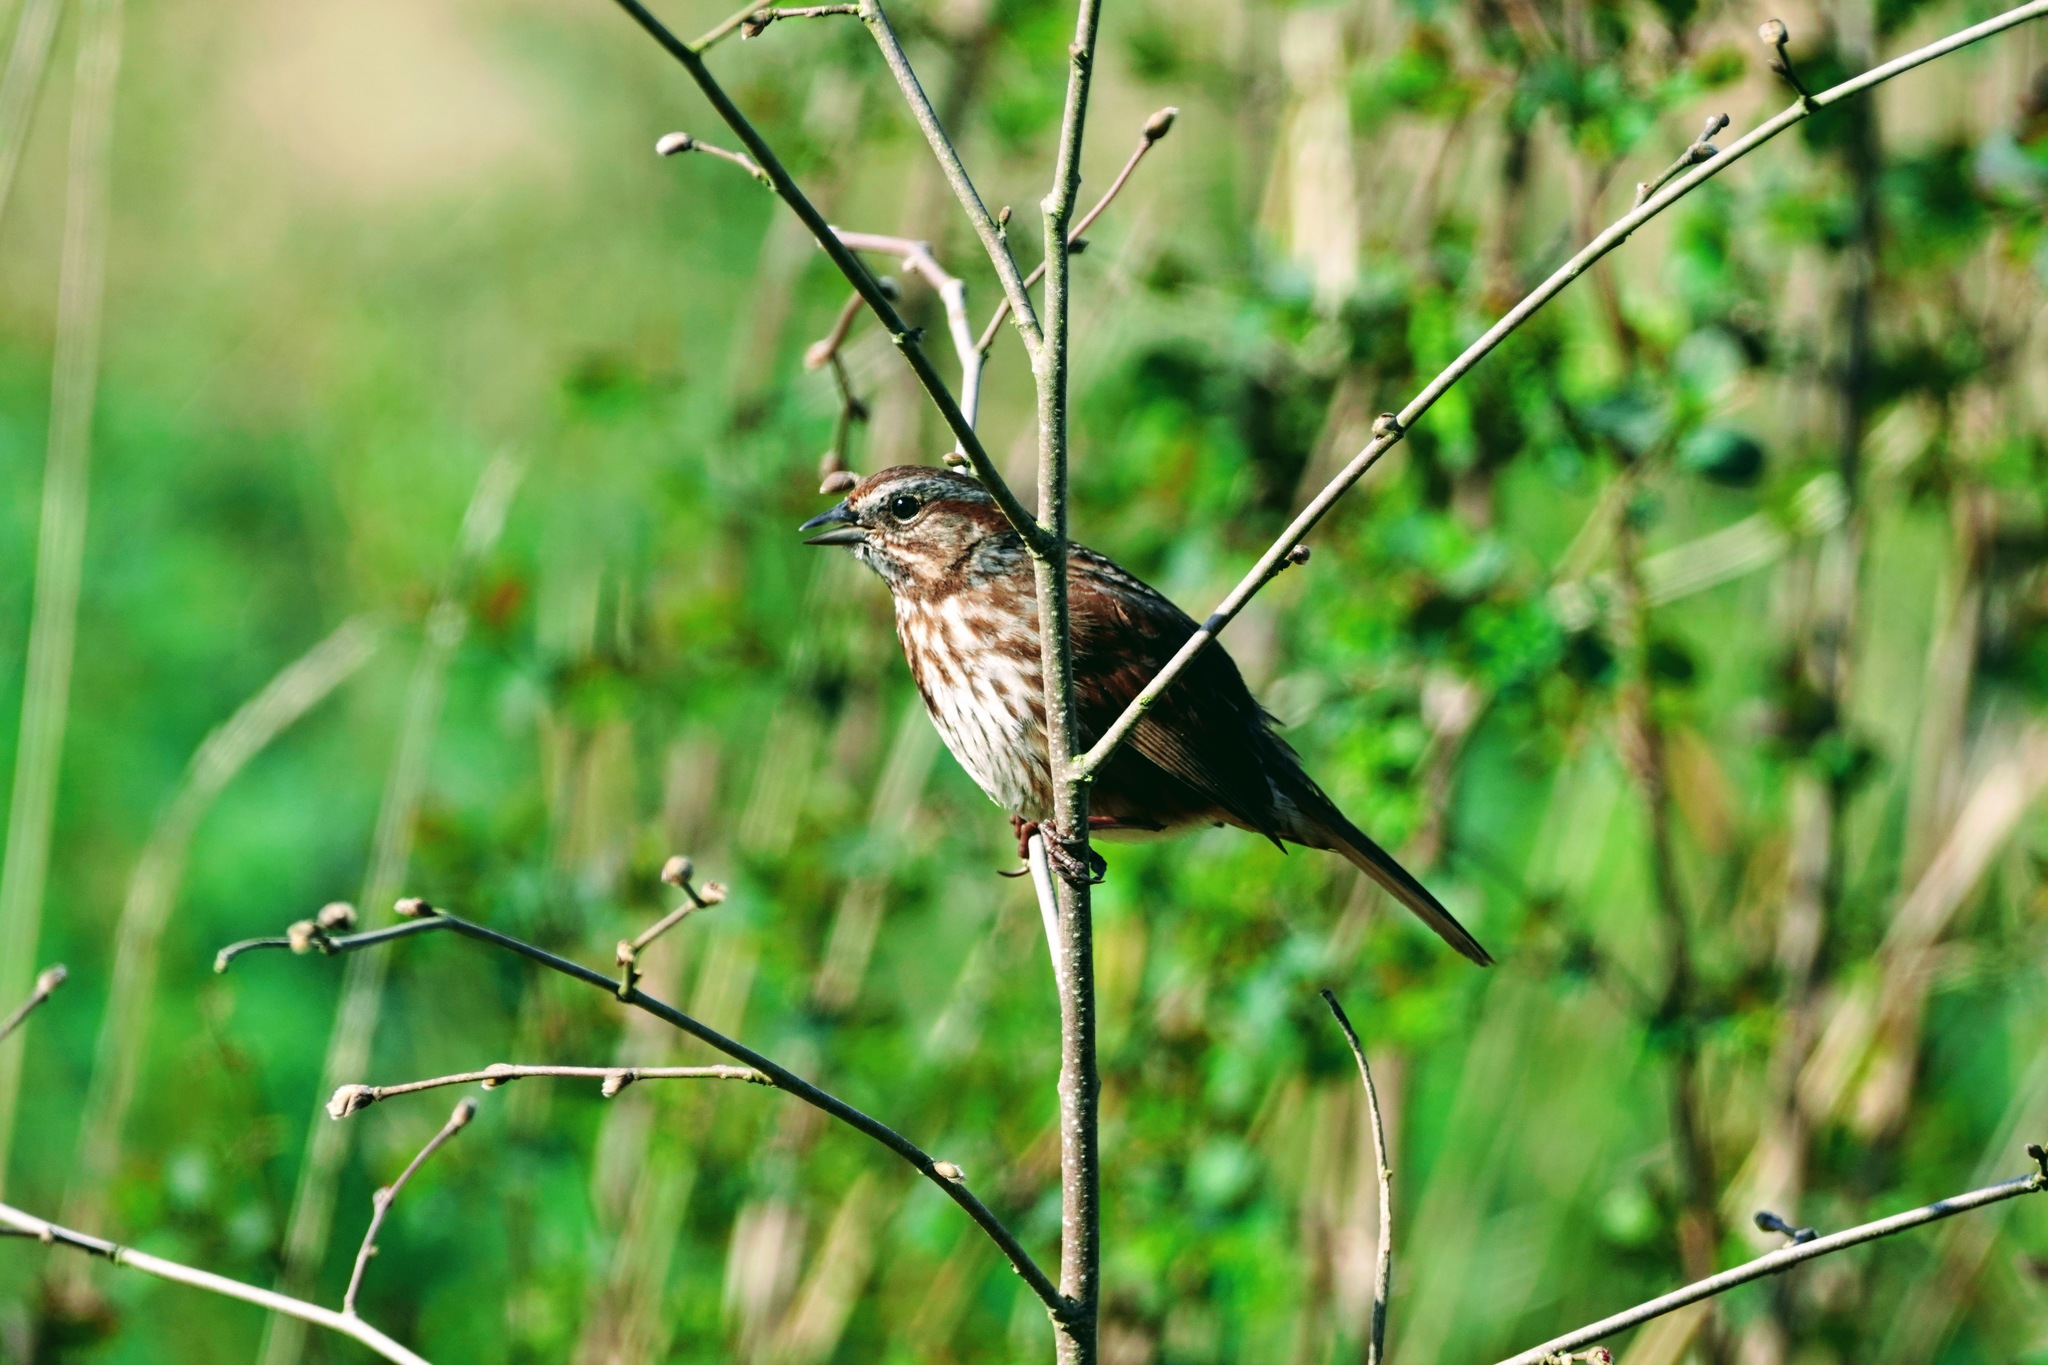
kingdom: Animalia
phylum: Chordata
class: Aves
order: Passeriformes
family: Passerellidae
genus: Melospiza
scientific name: Melospiza melodia
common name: Song sparrow
